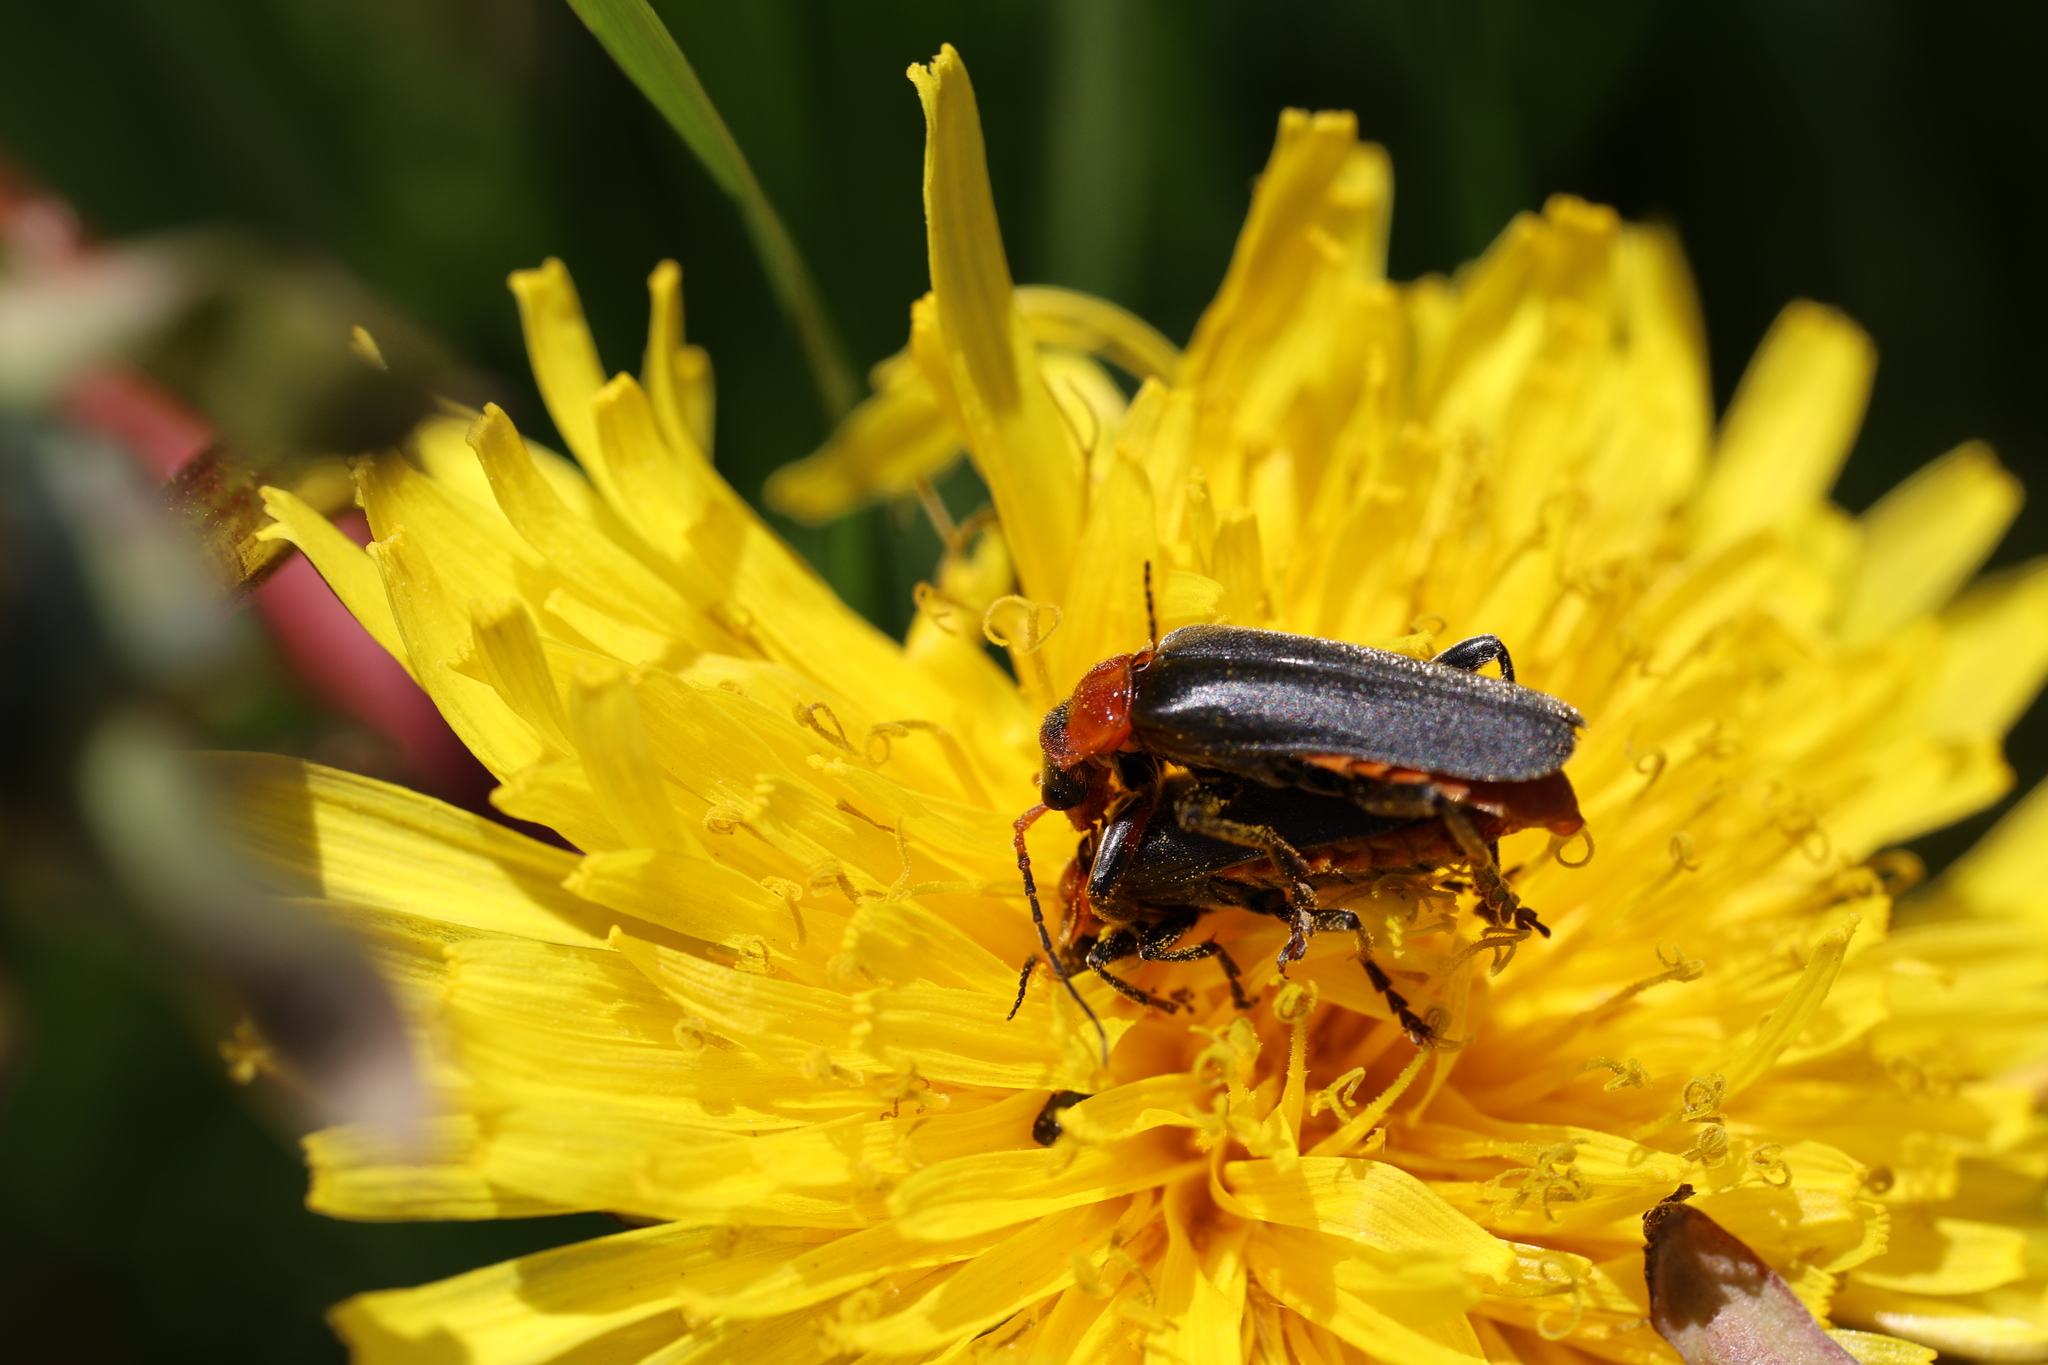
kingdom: Animalia
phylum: Arthropoda
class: Insecta
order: Coleoptera
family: Cantharidae
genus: Cantharis
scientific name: Cantharis fusca
